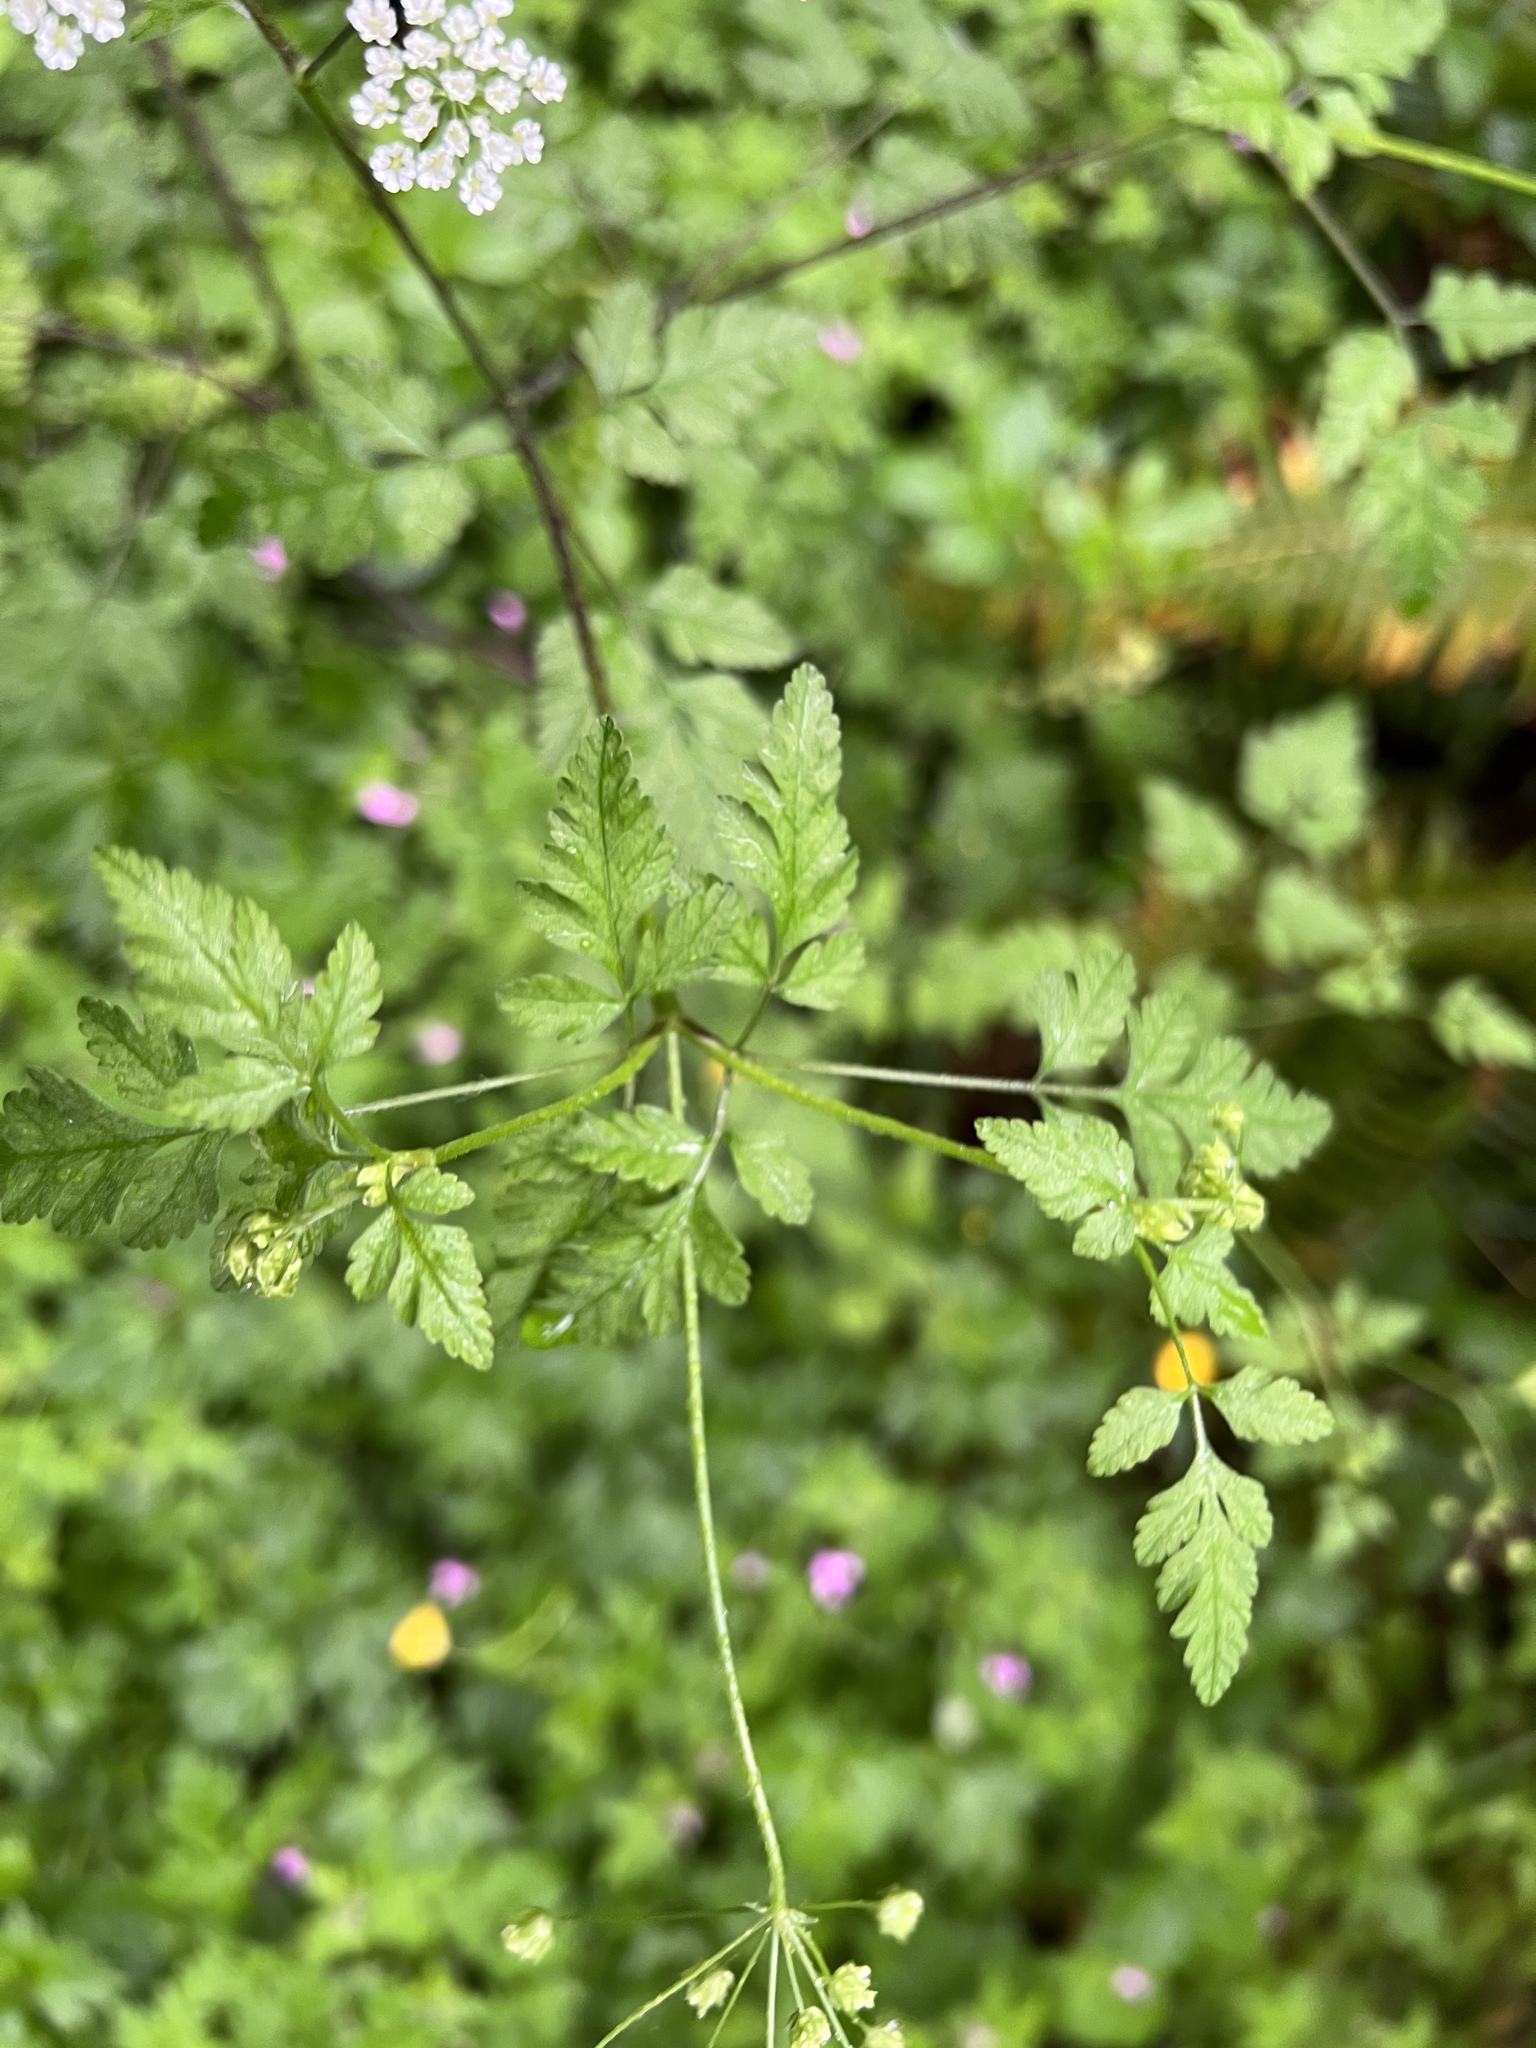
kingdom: Plantae
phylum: Tracheophyta
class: Magnoliopsida
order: Apiales
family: Apiaceae
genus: Chaerophyllum
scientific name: Chaerophyllum temulum
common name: Rough chervil
